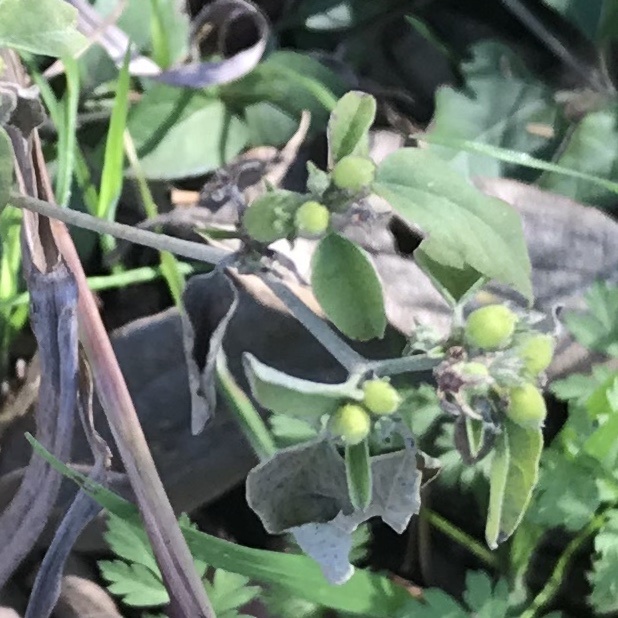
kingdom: Plantae
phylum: Tracheophyta
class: Magnoliopsida
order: Malpighiales
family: Euphorbiaceae
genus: Croton
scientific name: Croton monanthogynus
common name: One-seed croton
